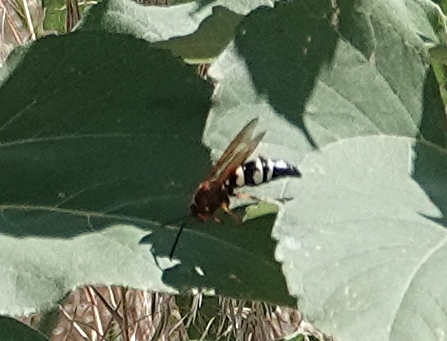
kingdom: Animalia
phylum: Arthropoda
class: Insecta
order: Hymenoptera
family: Crabronidae
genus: Sphecius
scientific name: Sphecius speciosus
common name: Cicada killer
